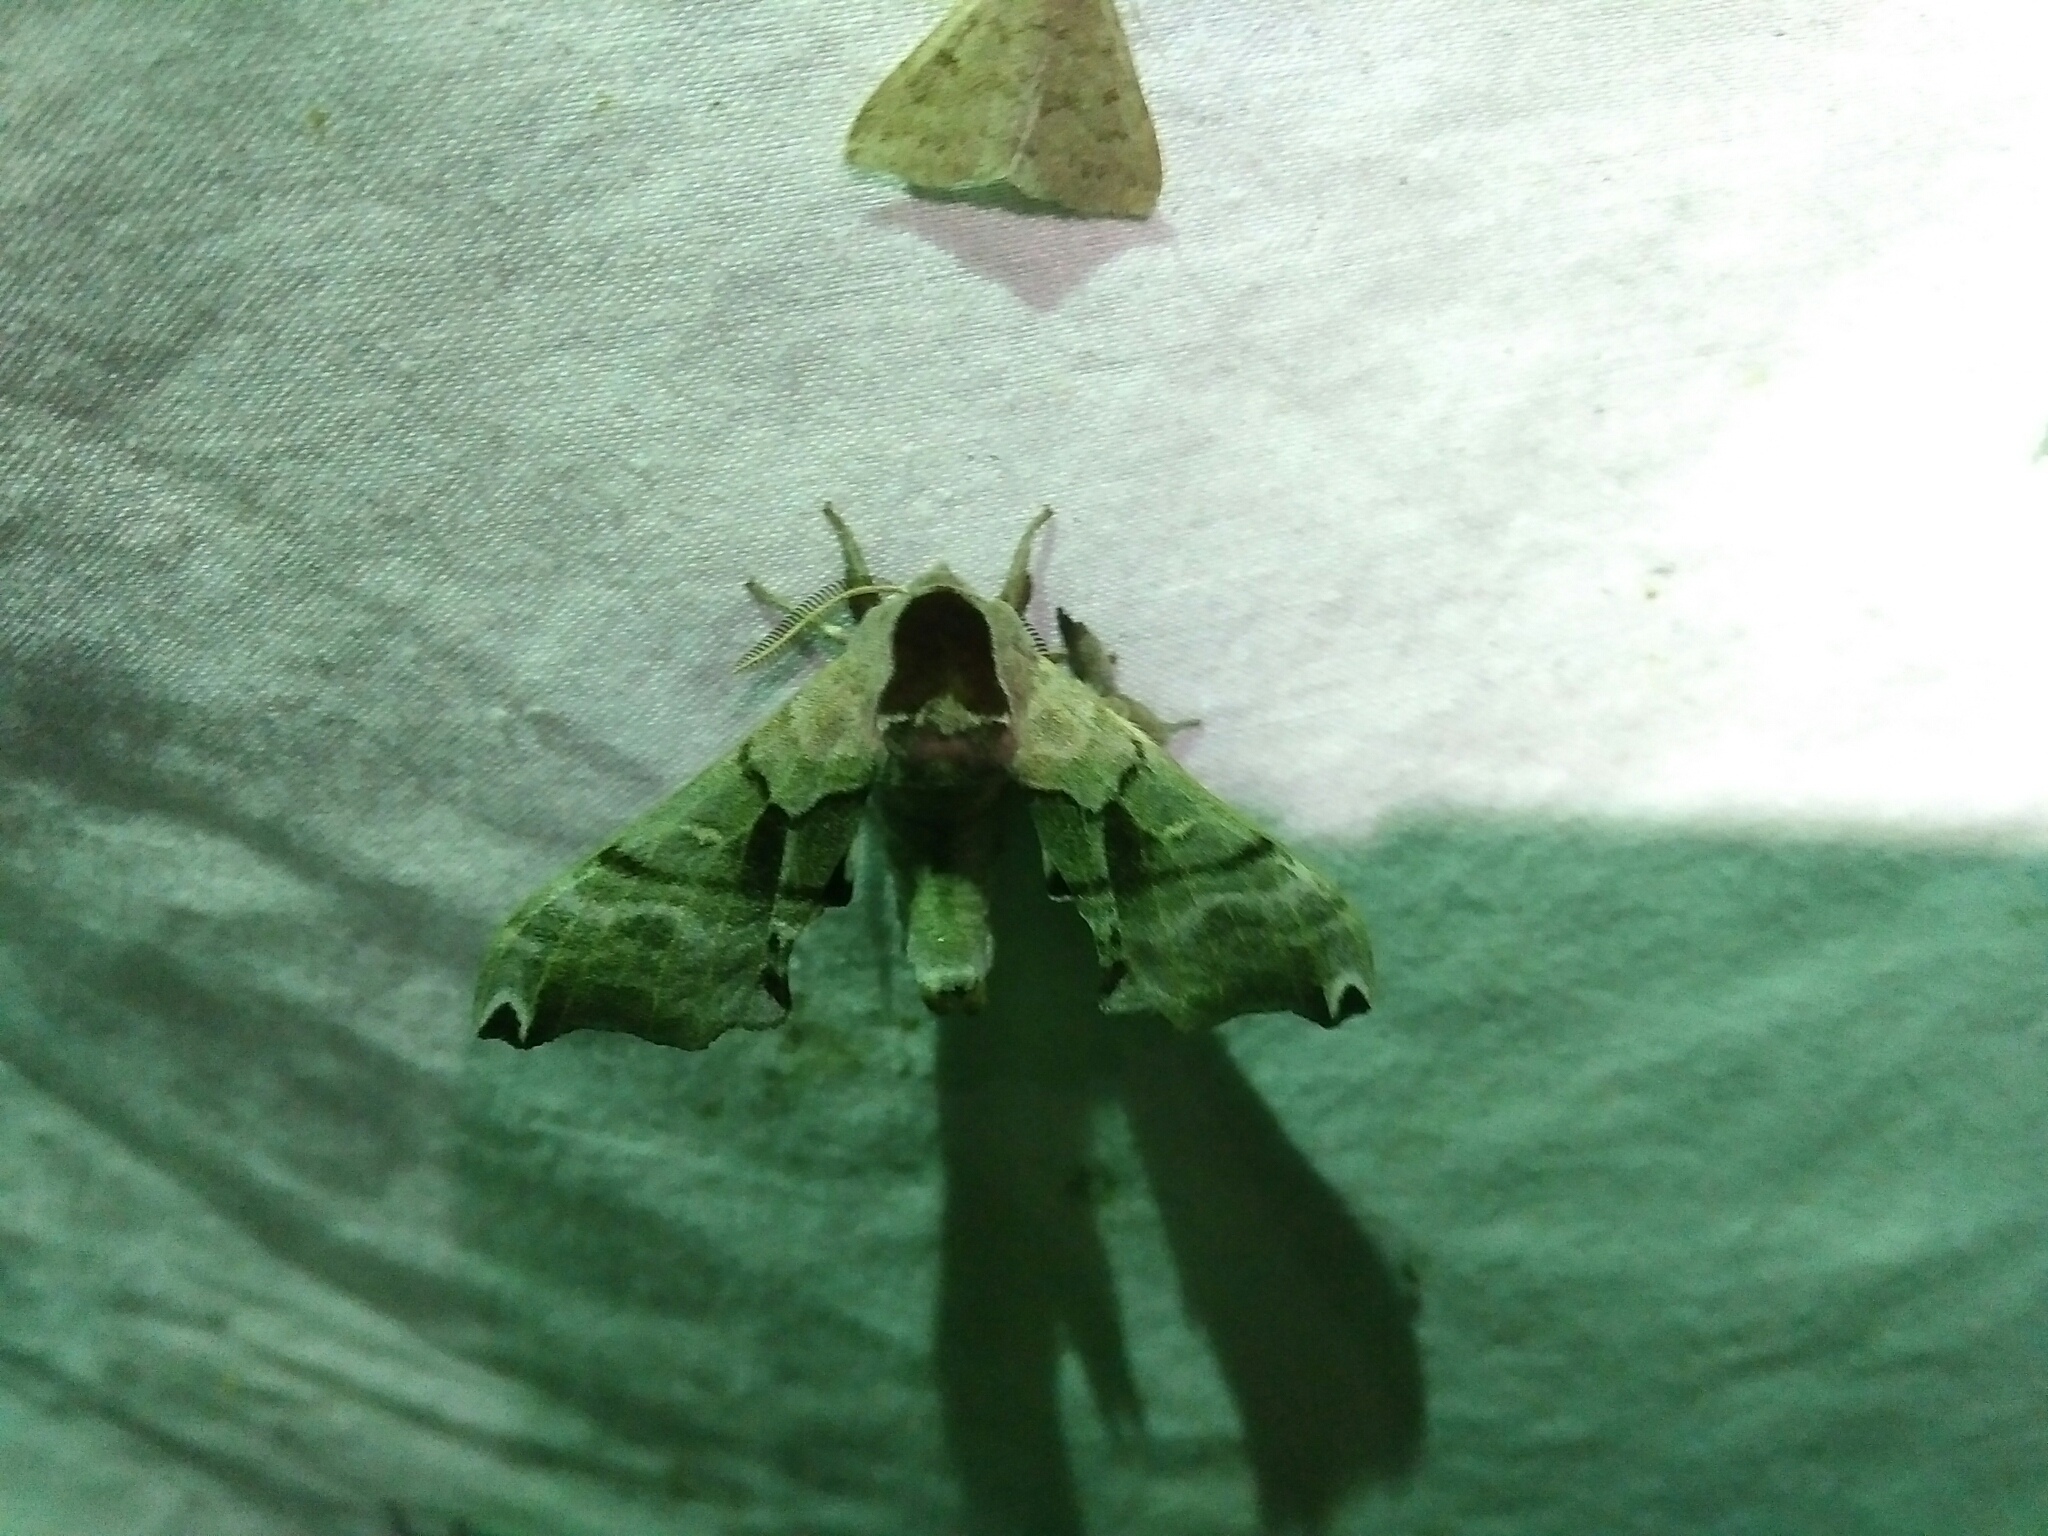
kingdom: Animalia
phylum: Arthropoda
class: Insecta
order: Lepidoptera
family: Sphingidae
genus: Smerinthus
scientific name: Smerinthus jamaicensis
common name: Twin spotted sphinx
